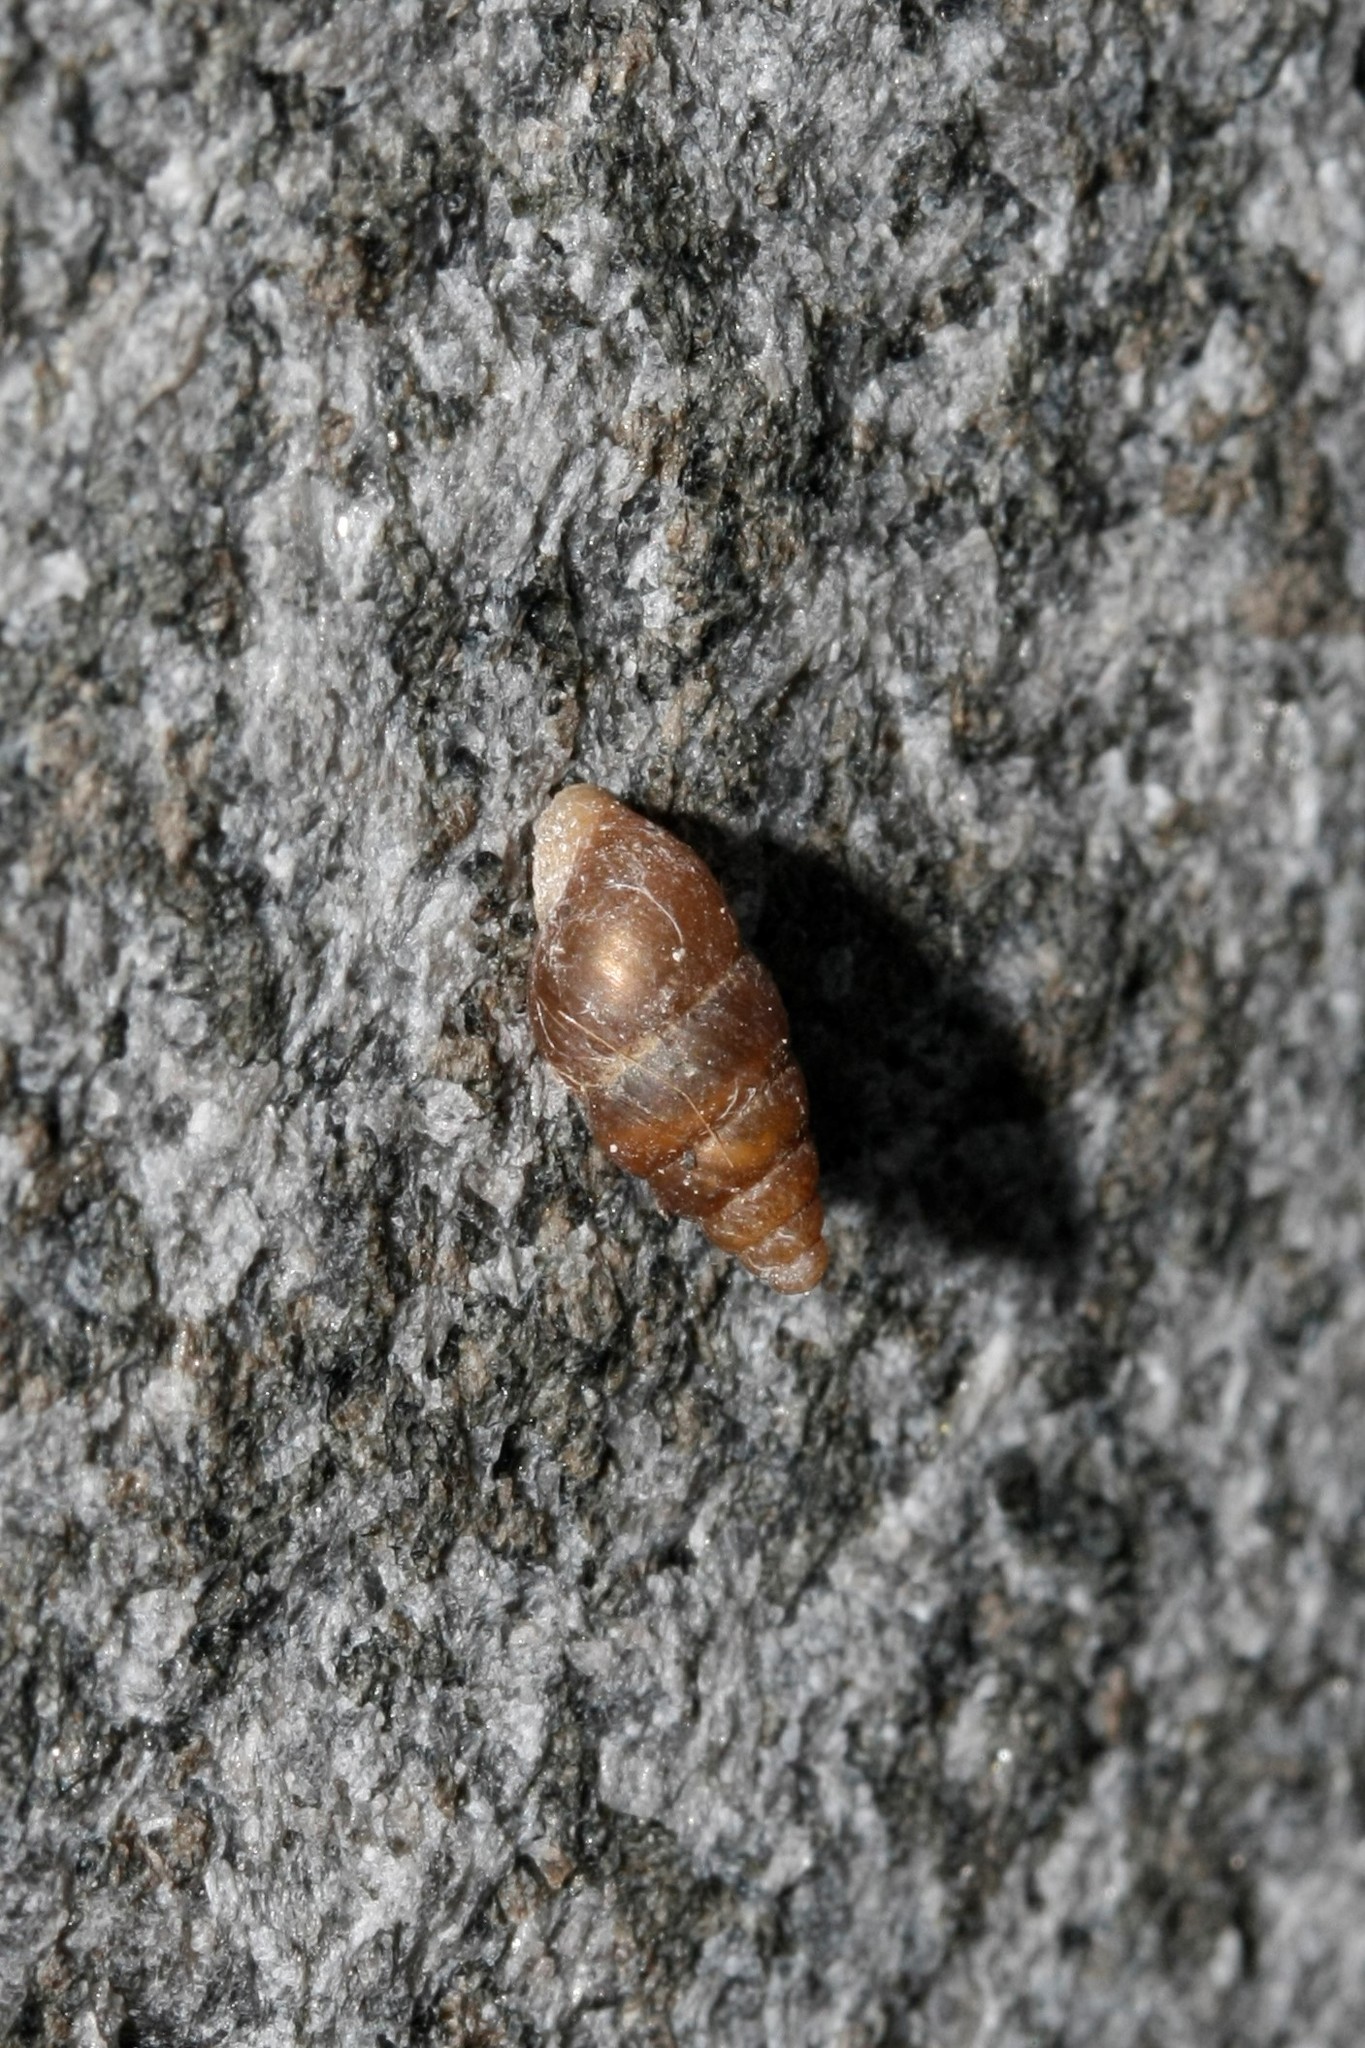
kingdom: Animalia
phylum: Mollusca
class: Gastropoda
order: Stylommatophora
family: Enidae
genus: Merdigera
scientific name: Merdigera obscura
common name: Lesser bulin
